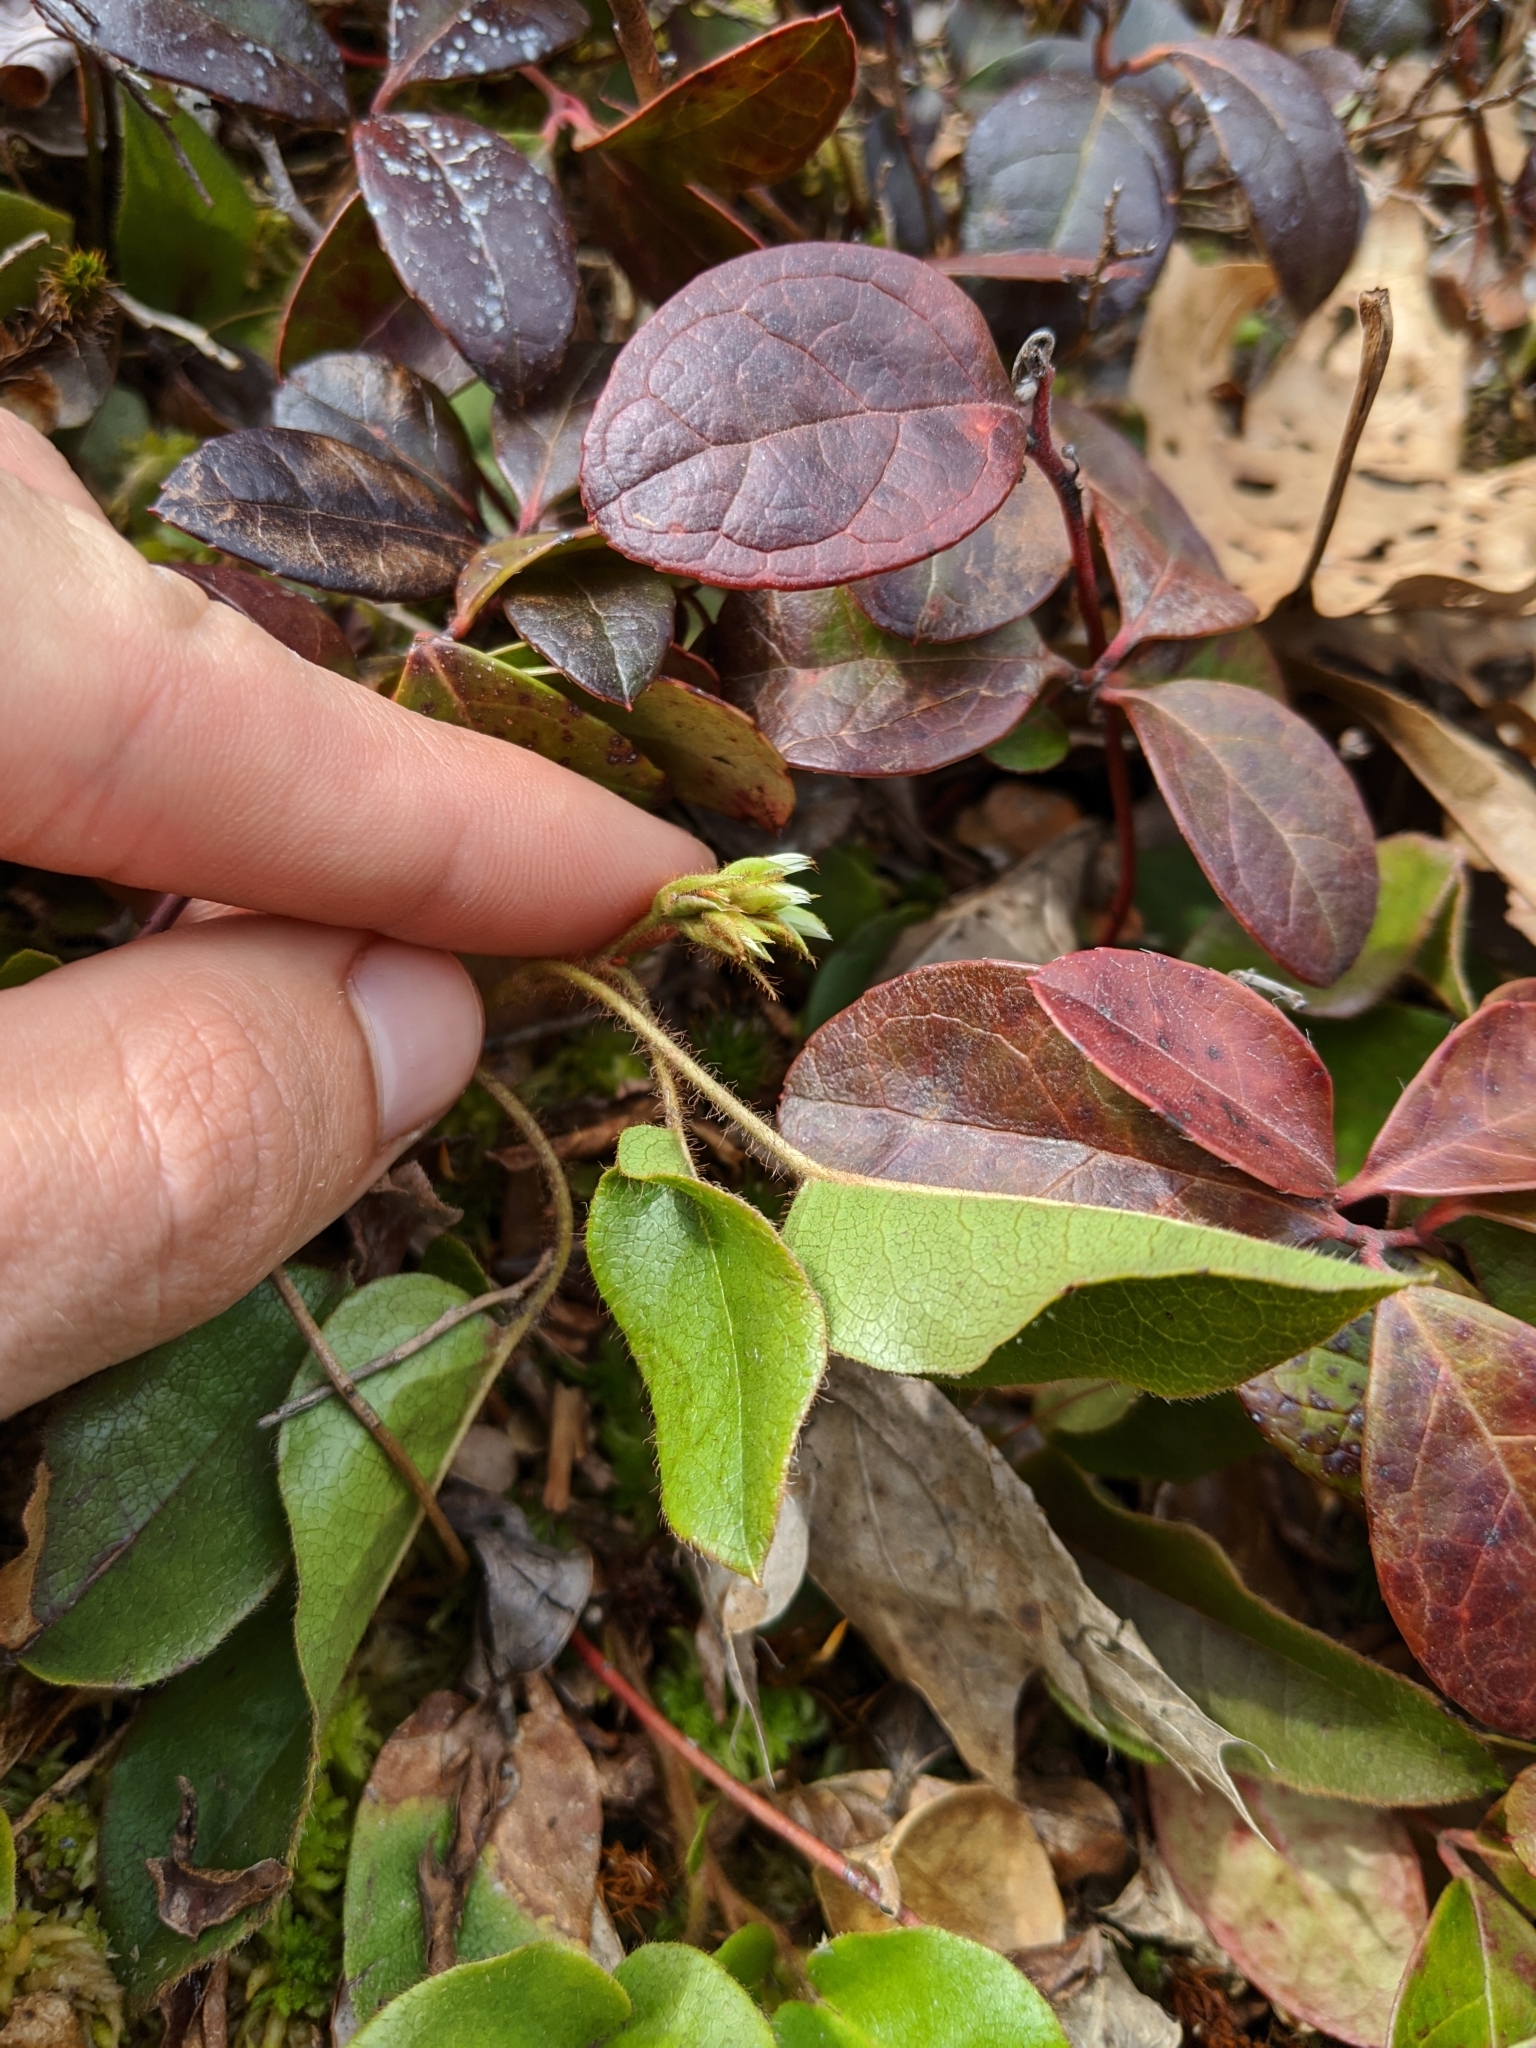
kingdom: Plantae
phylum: Tracheophyta
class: Magnoliopsida
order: Ericales
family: Ericaceae
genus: Epigaea
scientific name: Epigaea repens
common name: Gravelroot
